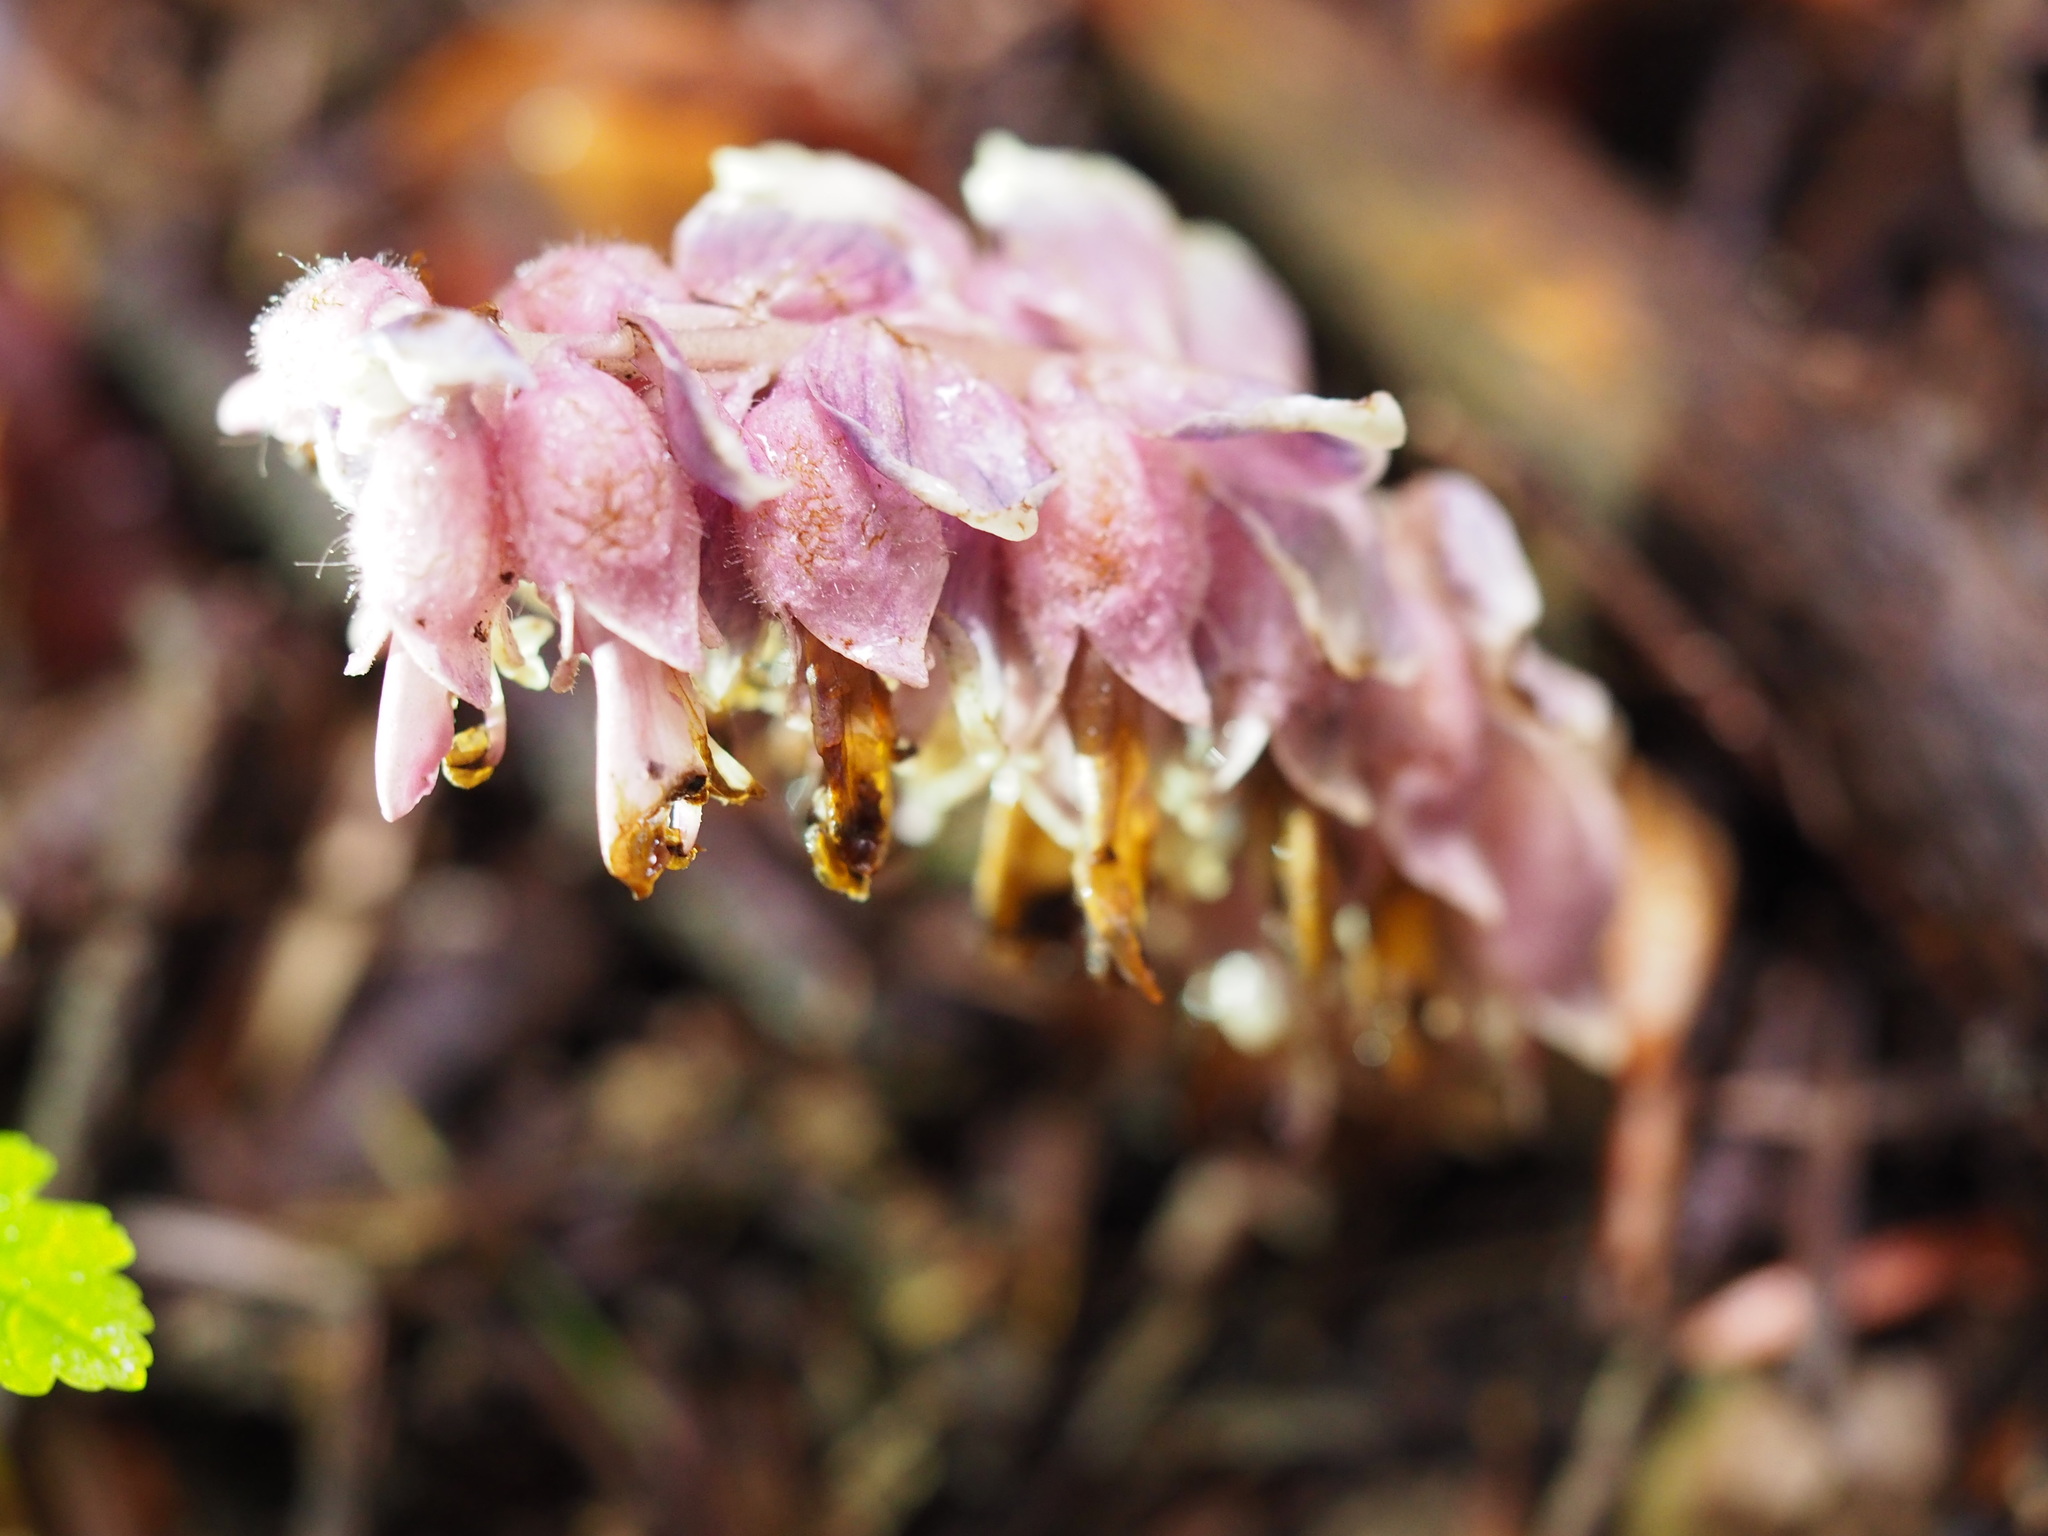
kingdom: Plantae
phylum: Tracheophyta
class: Magnoliopsida
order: Lamiales
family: Orobanchaceae
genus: Lathraea
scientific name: Lathraea squamaria
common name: Toothwort
